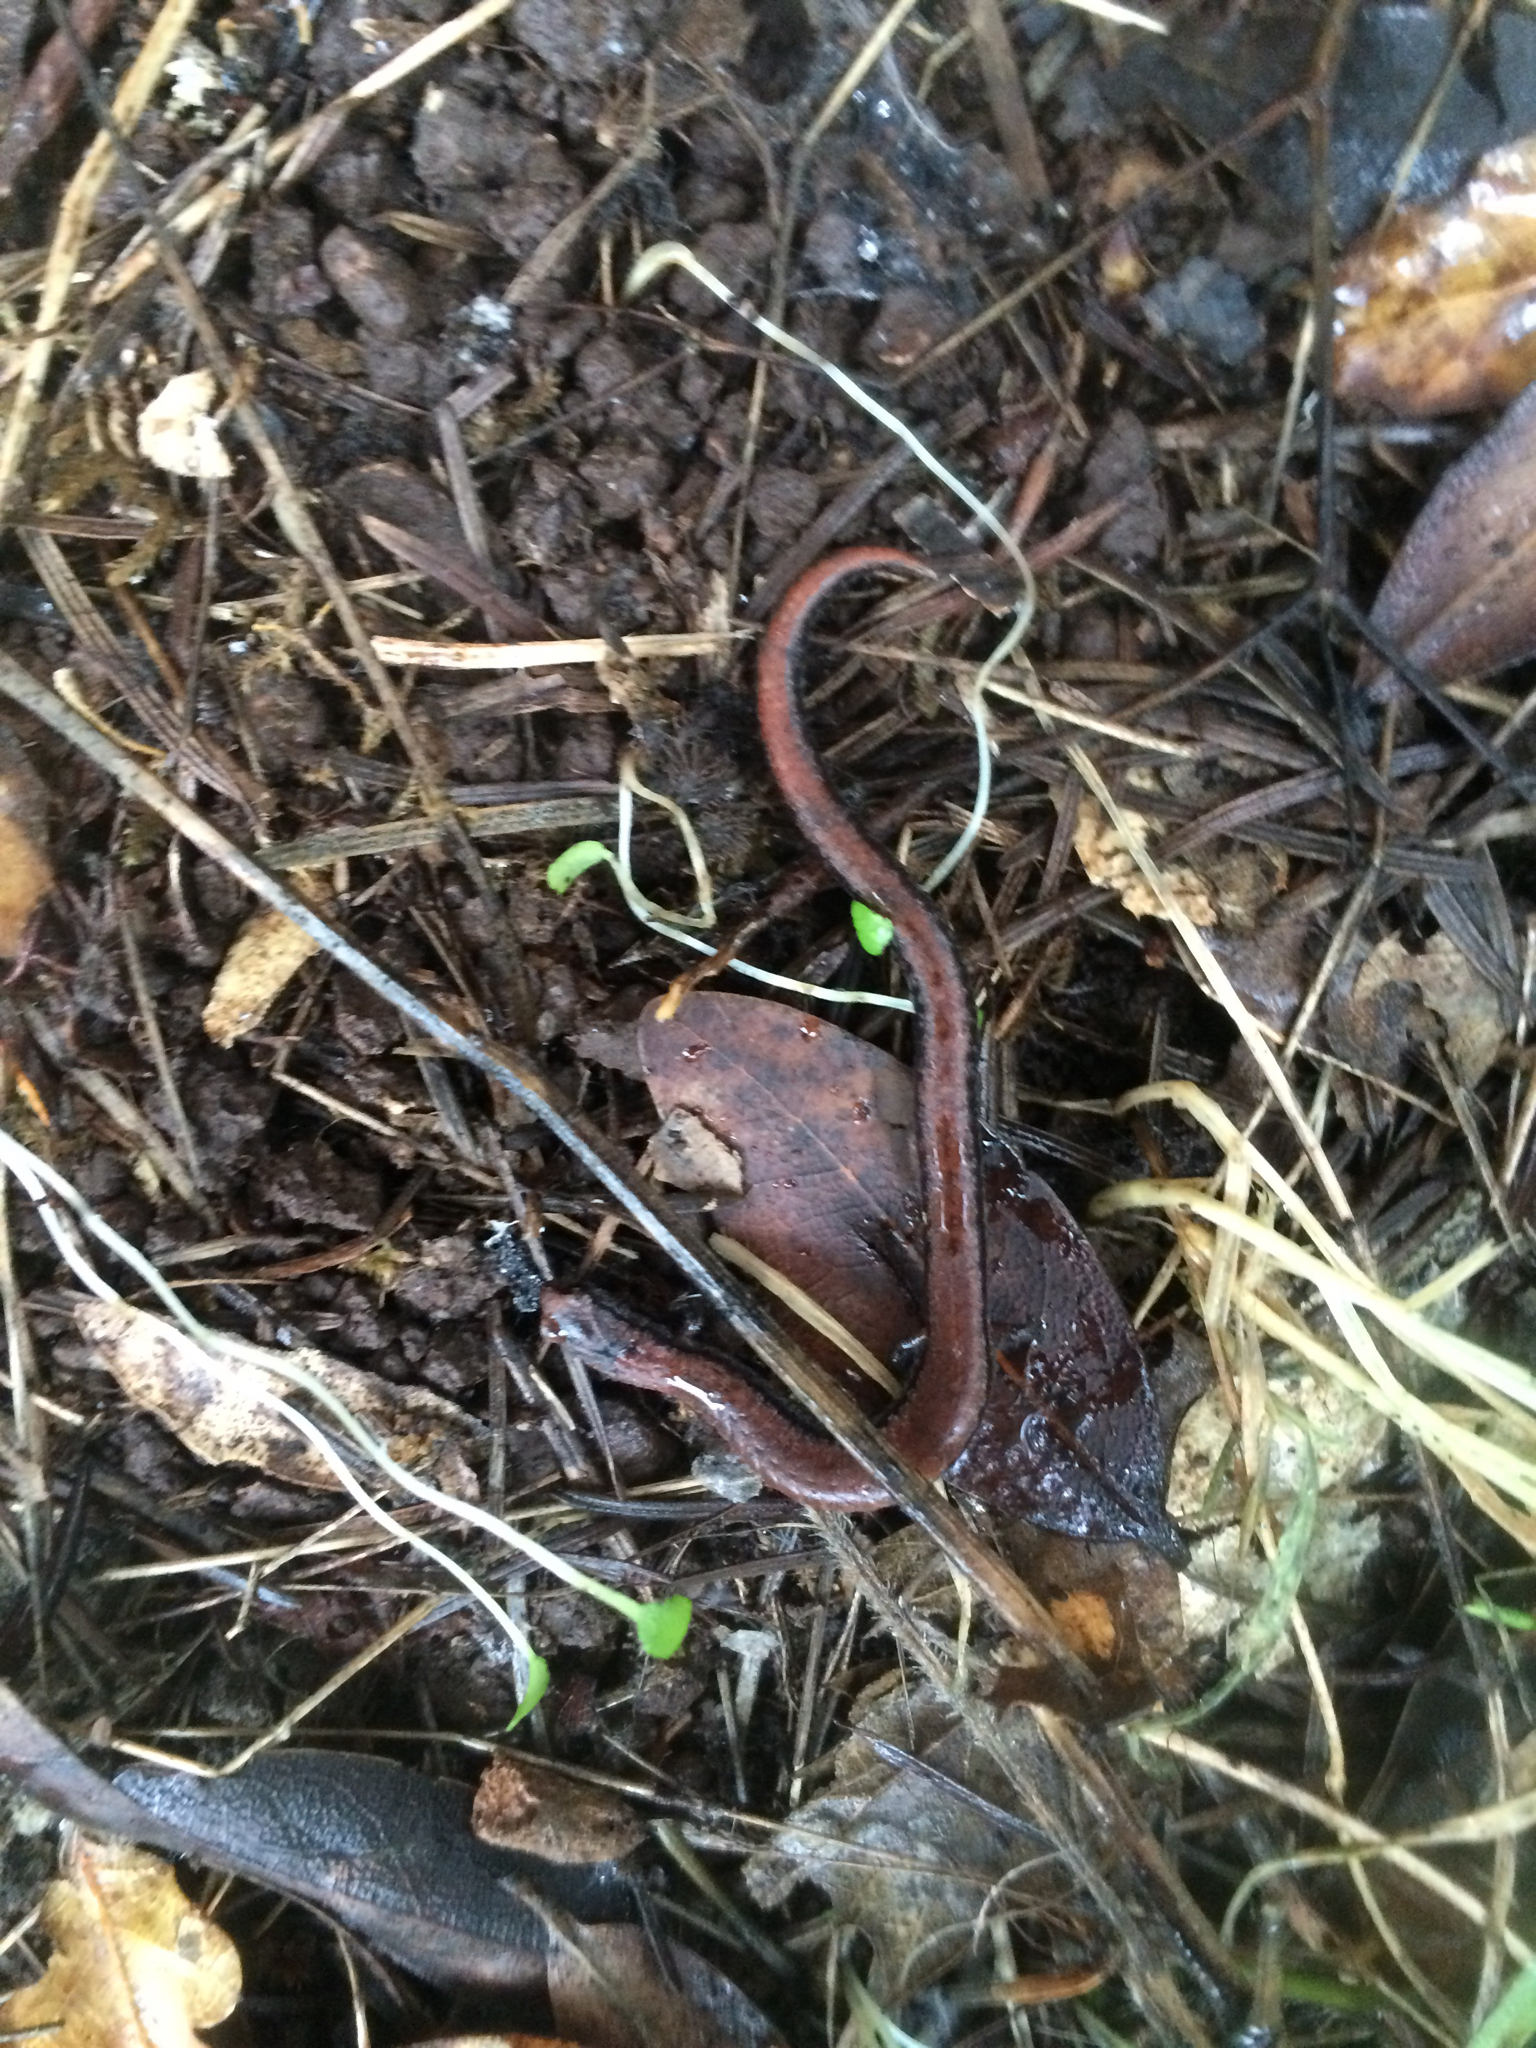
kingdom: Animalia
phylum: Chordata
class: Amphibia
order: Caudata
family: Plethodontidae
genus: Batrachoseps
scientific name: Batrachoseps attenuatus
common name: California slender salamander
